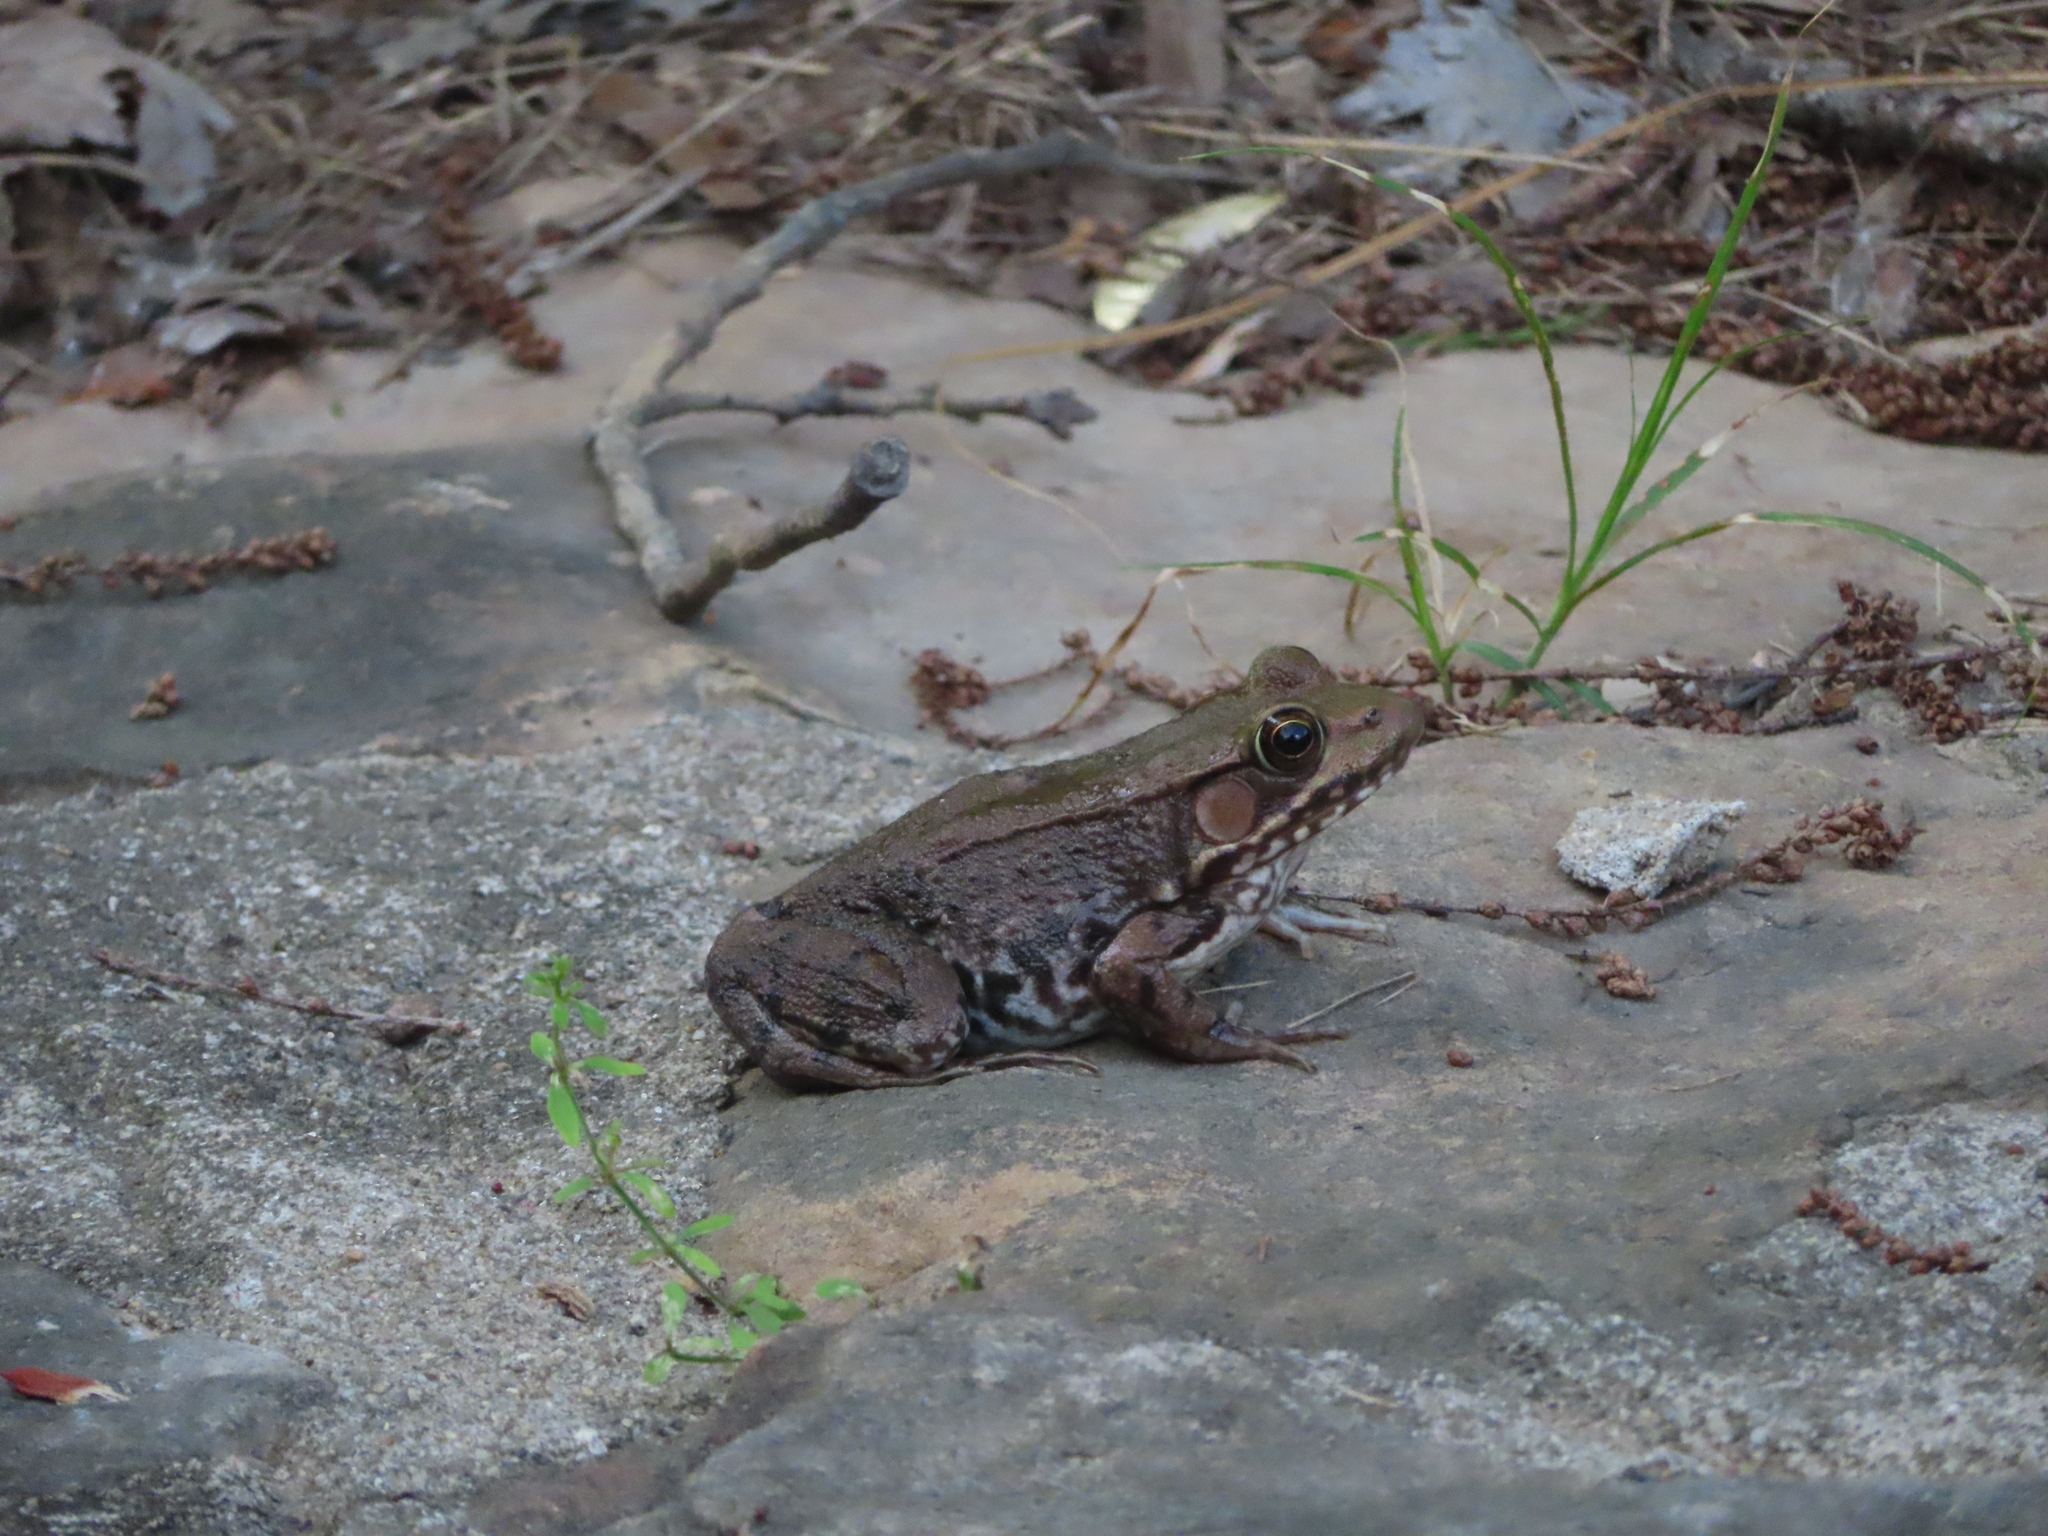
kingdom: Animalia
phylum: Chordata
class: Amphibia
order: Anura
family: Ranidae
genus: Lithobates
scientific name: Lithobates clamitans
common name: Green frog
